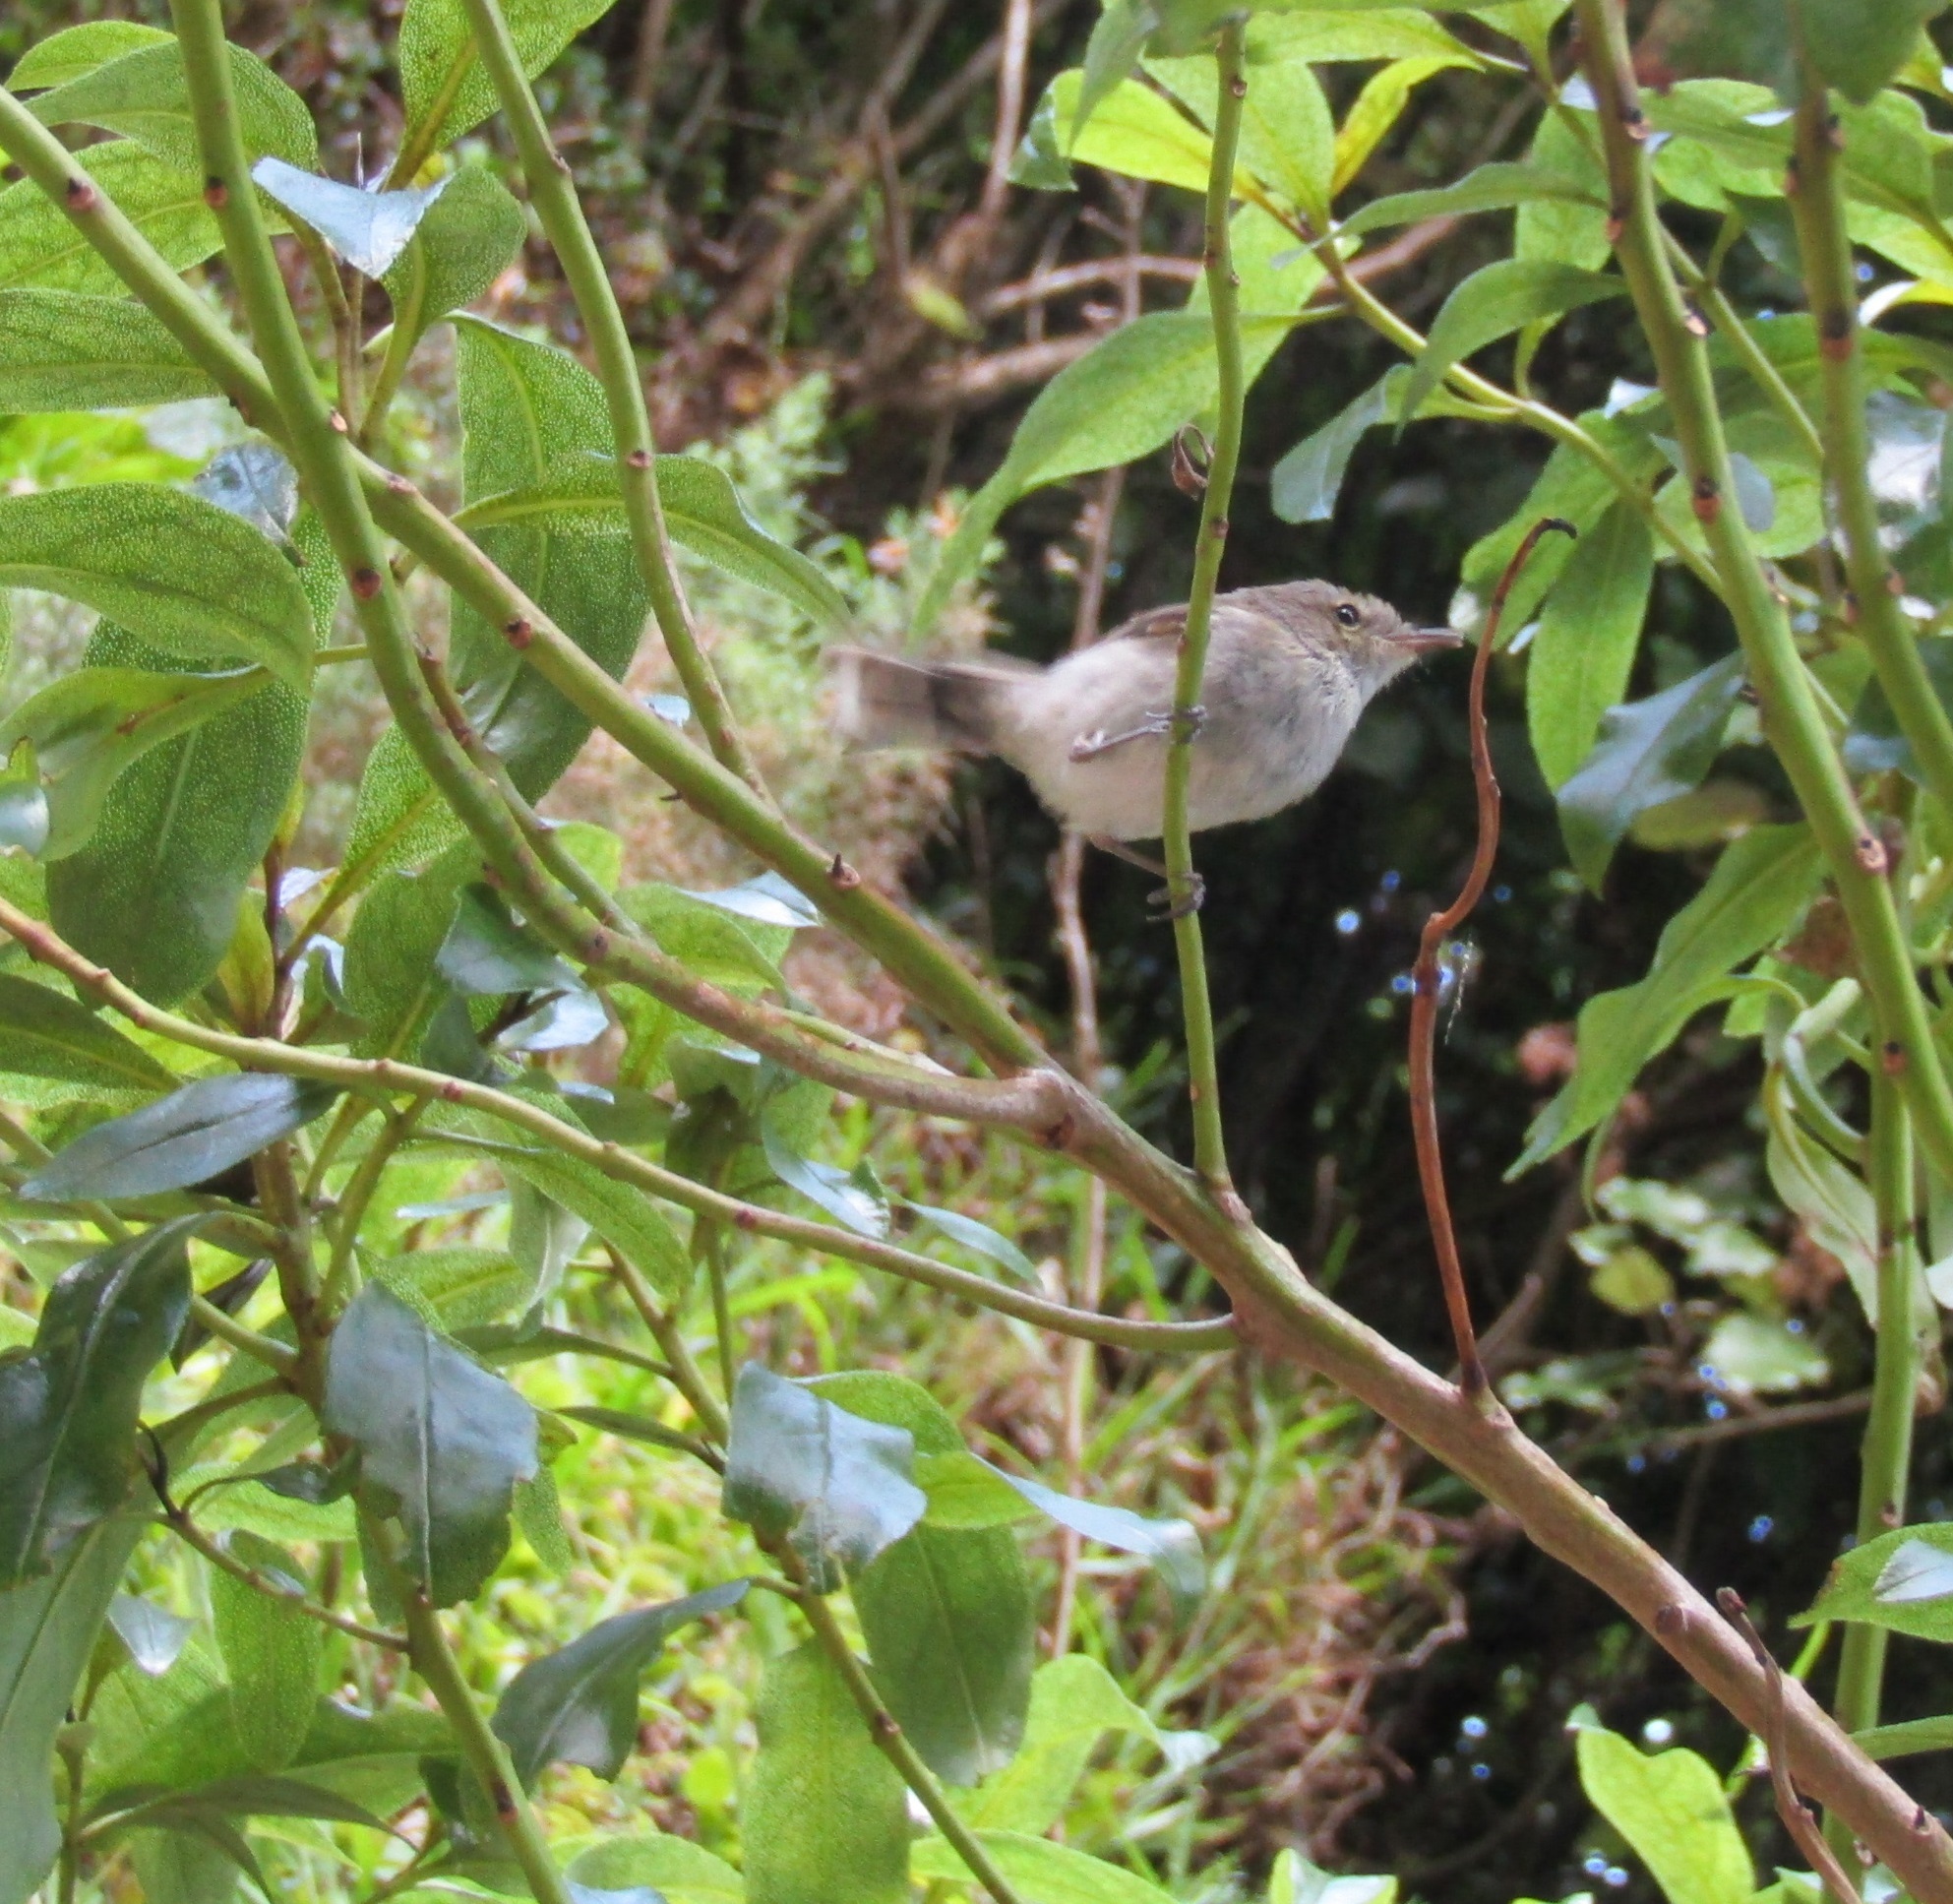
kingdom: Animalia
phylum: Chordata
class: Aves
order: Passeriformes
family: Acanthizidae
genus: Gerygone
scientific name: Gerygone igata
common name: Grey gerygone
